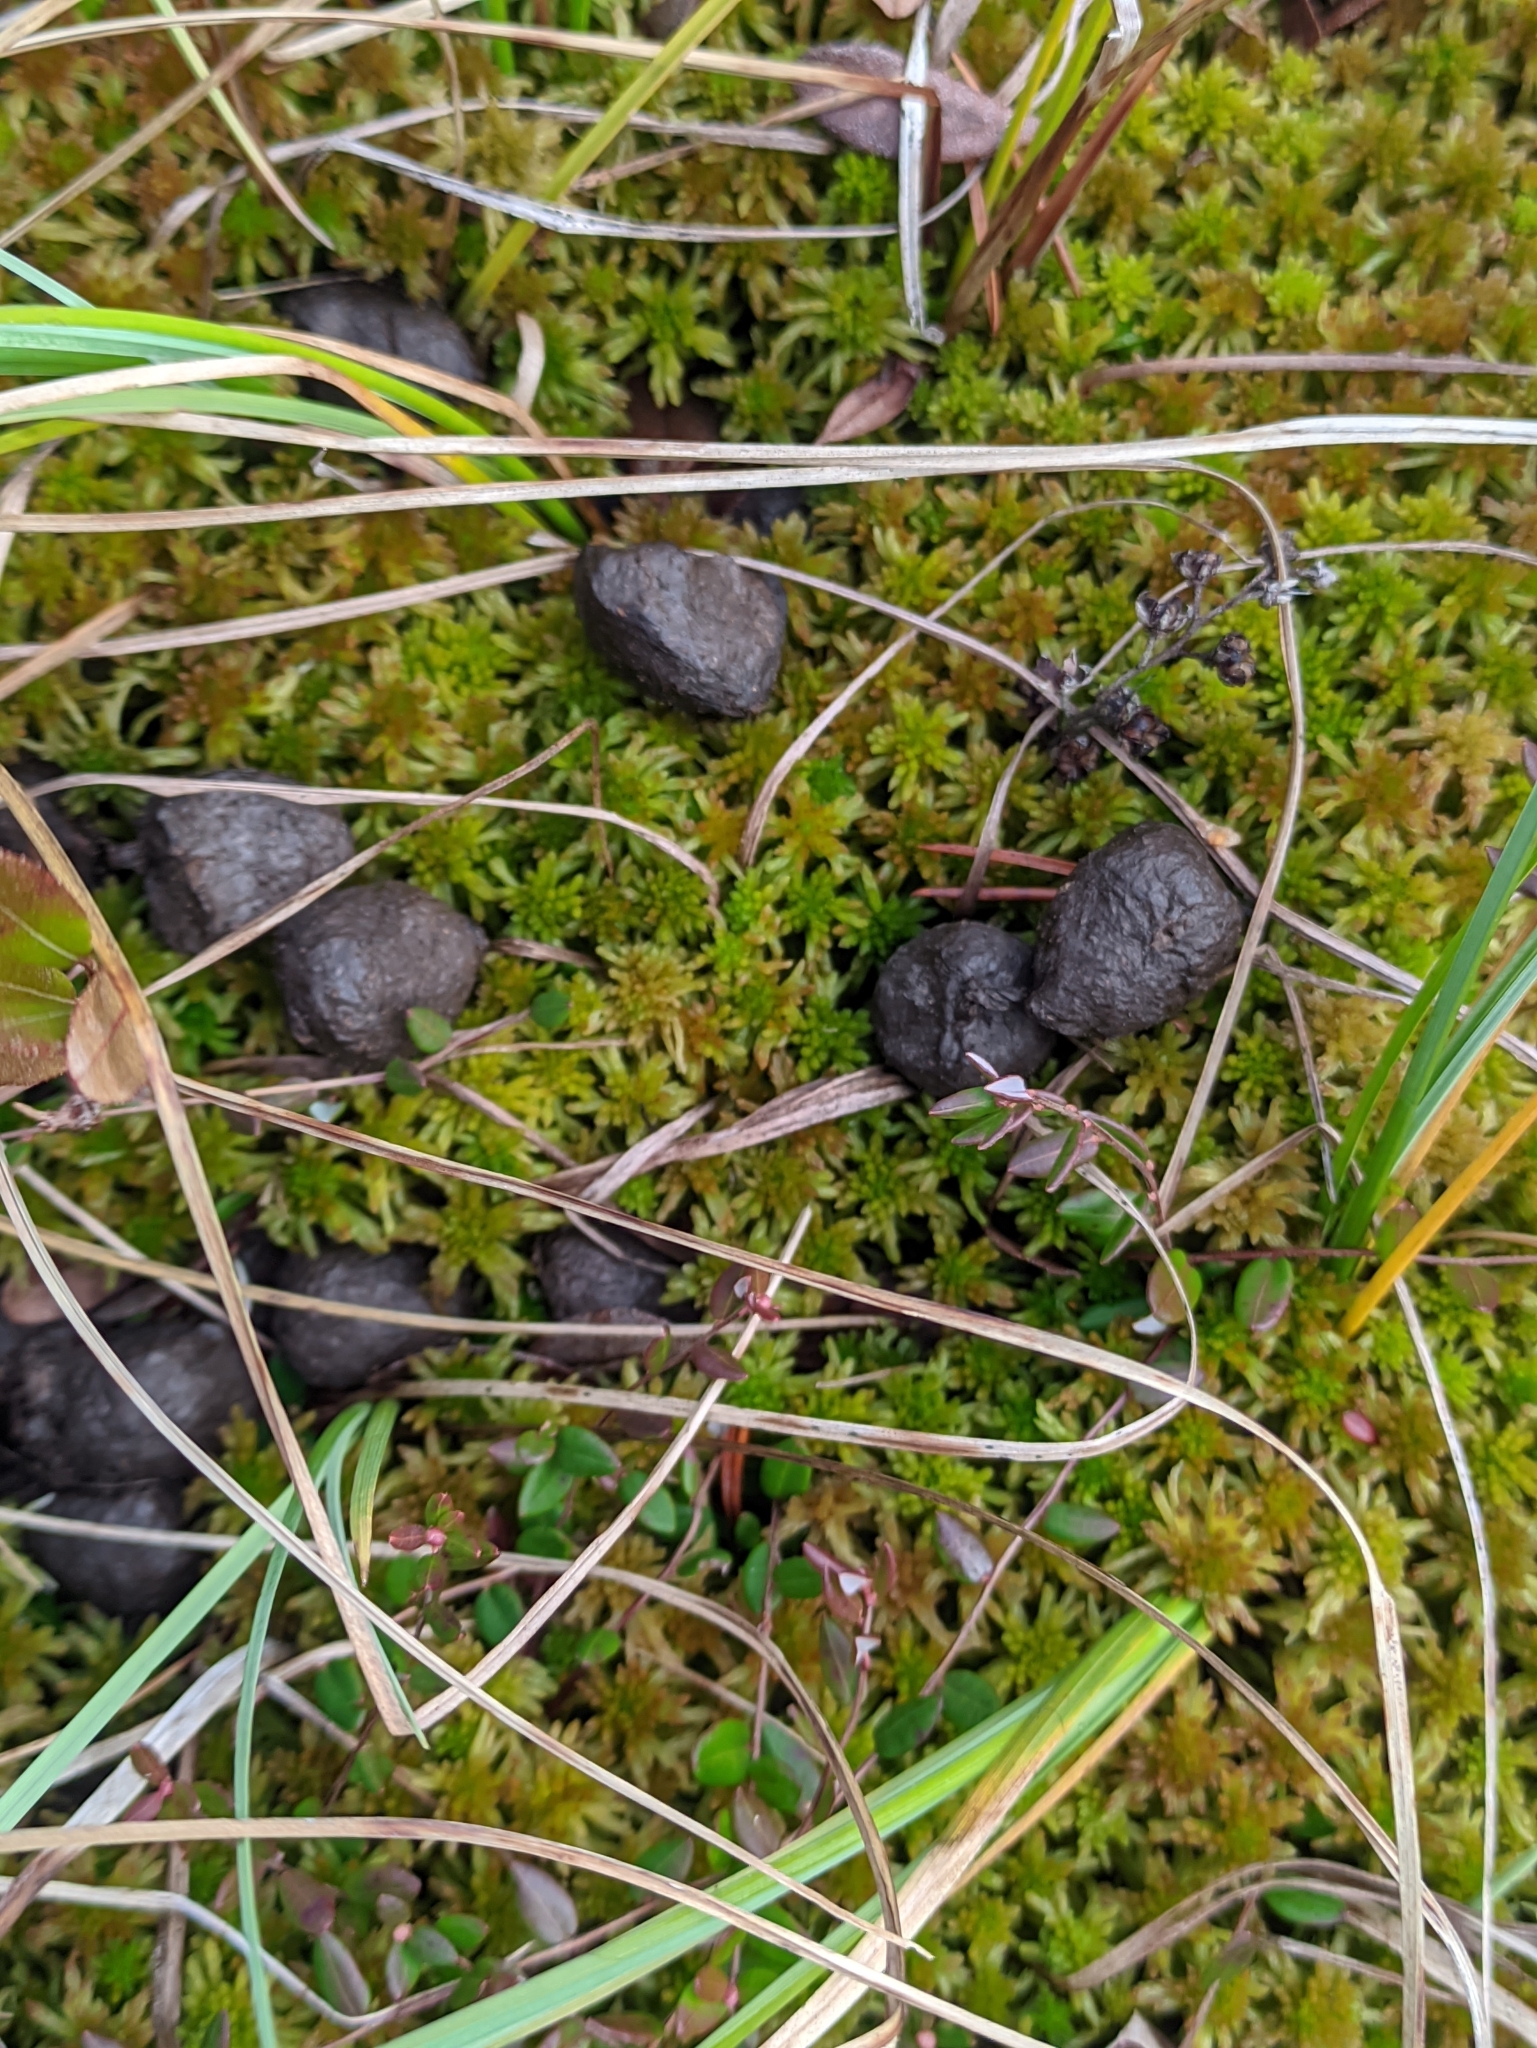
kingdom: Animalia
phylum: Chordata
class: Mammalia
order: Artiodactyla
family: Cervidae
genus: Alces
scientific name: Alces alces
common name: Moose
